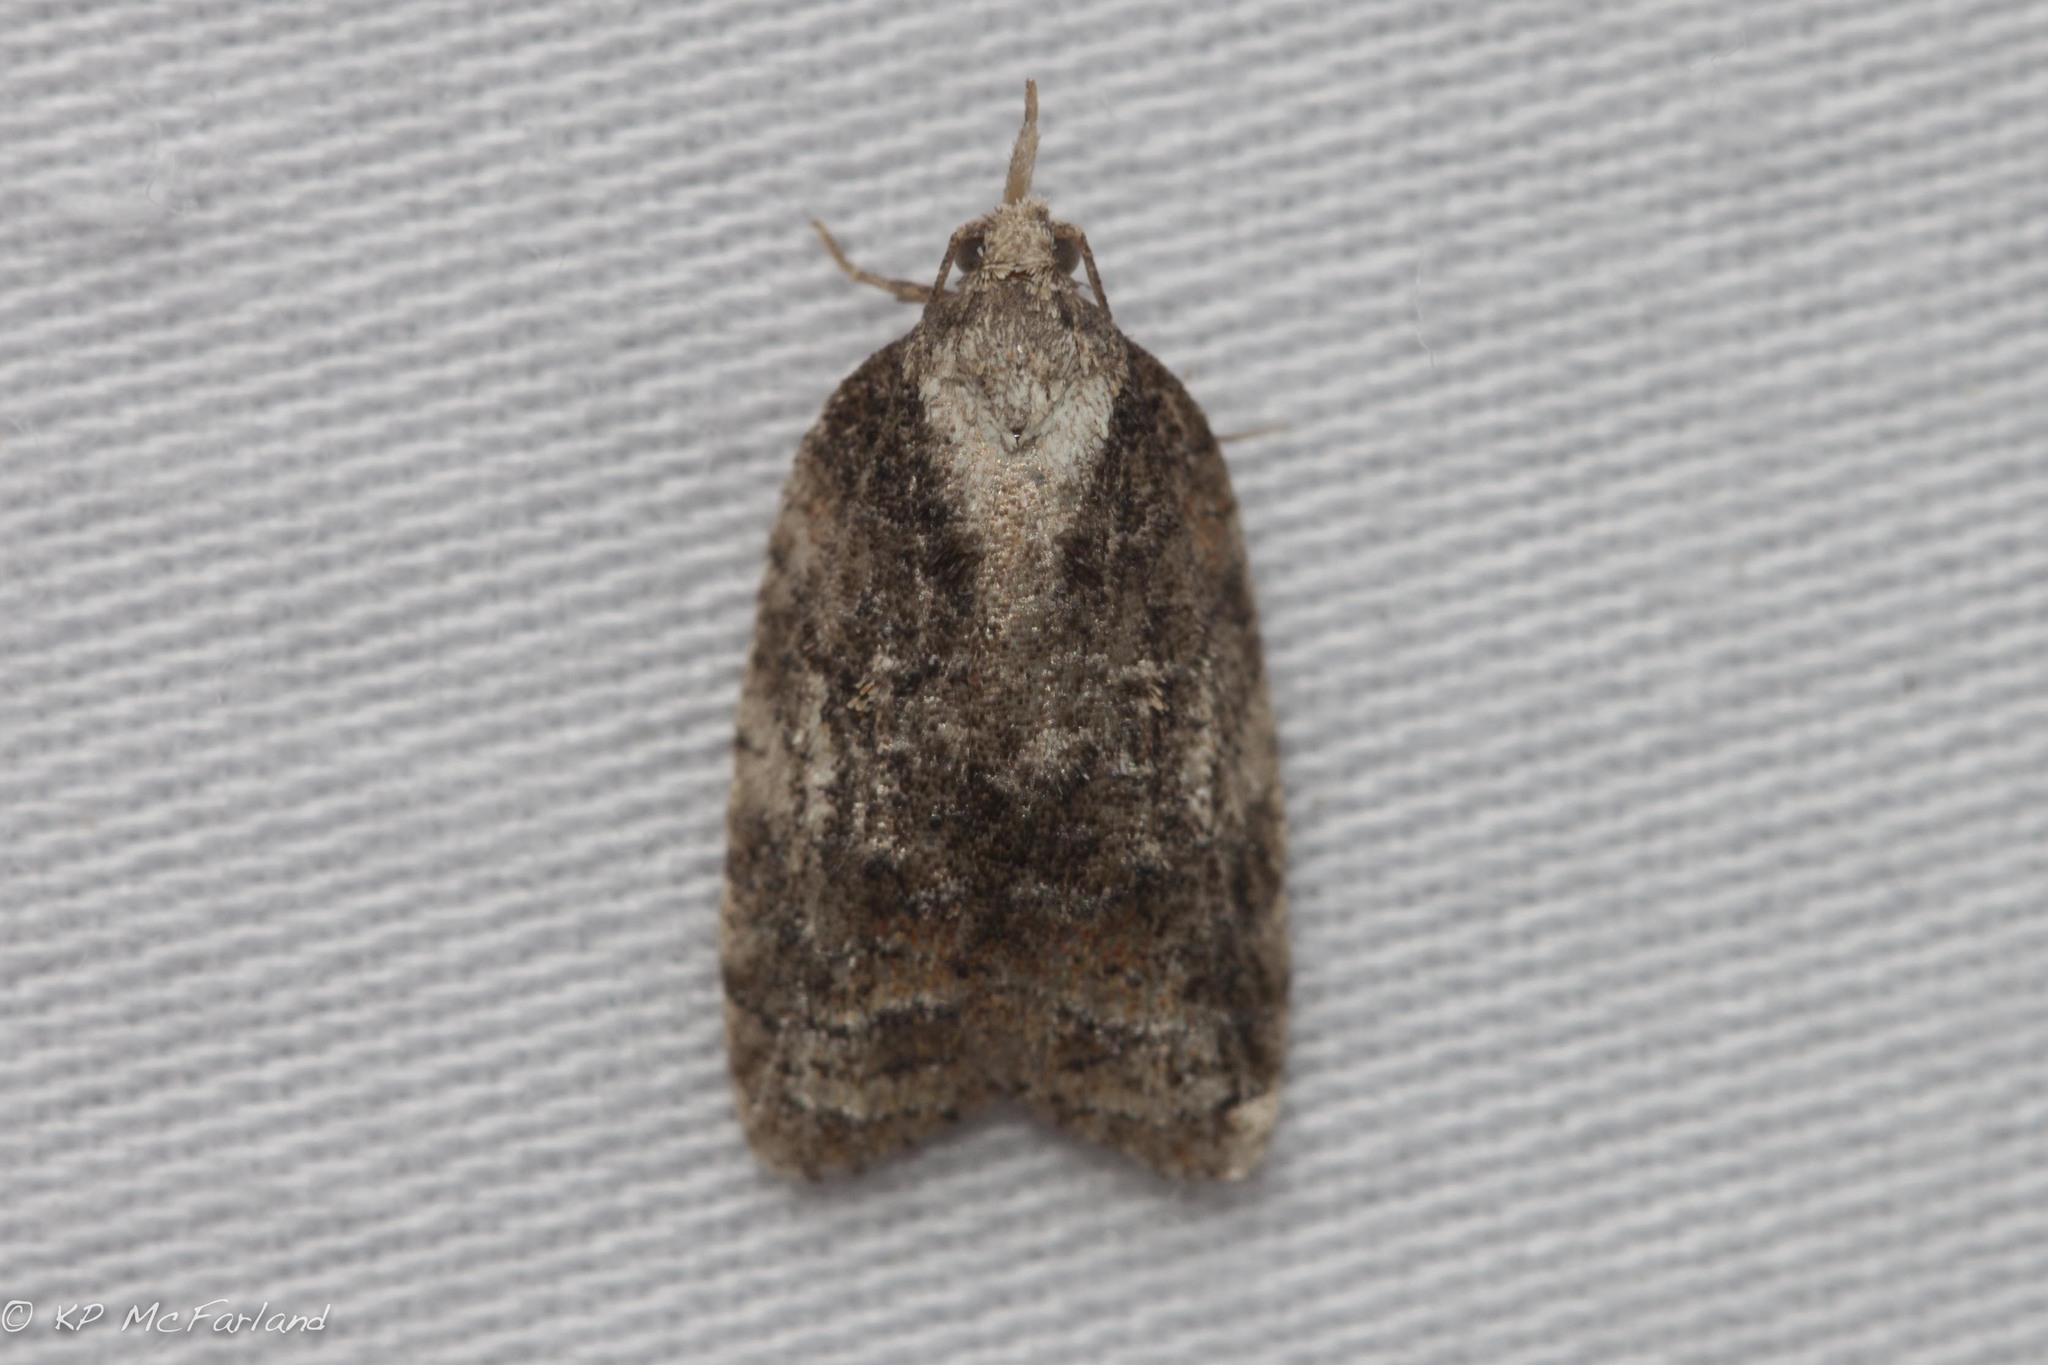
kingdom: Animalia
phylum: Arthropoda
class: Insecta
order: Lepidoptera
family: Tortricidae
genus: Platynota
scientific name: Platynota exasperatana
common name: Exasperating platynota moth
